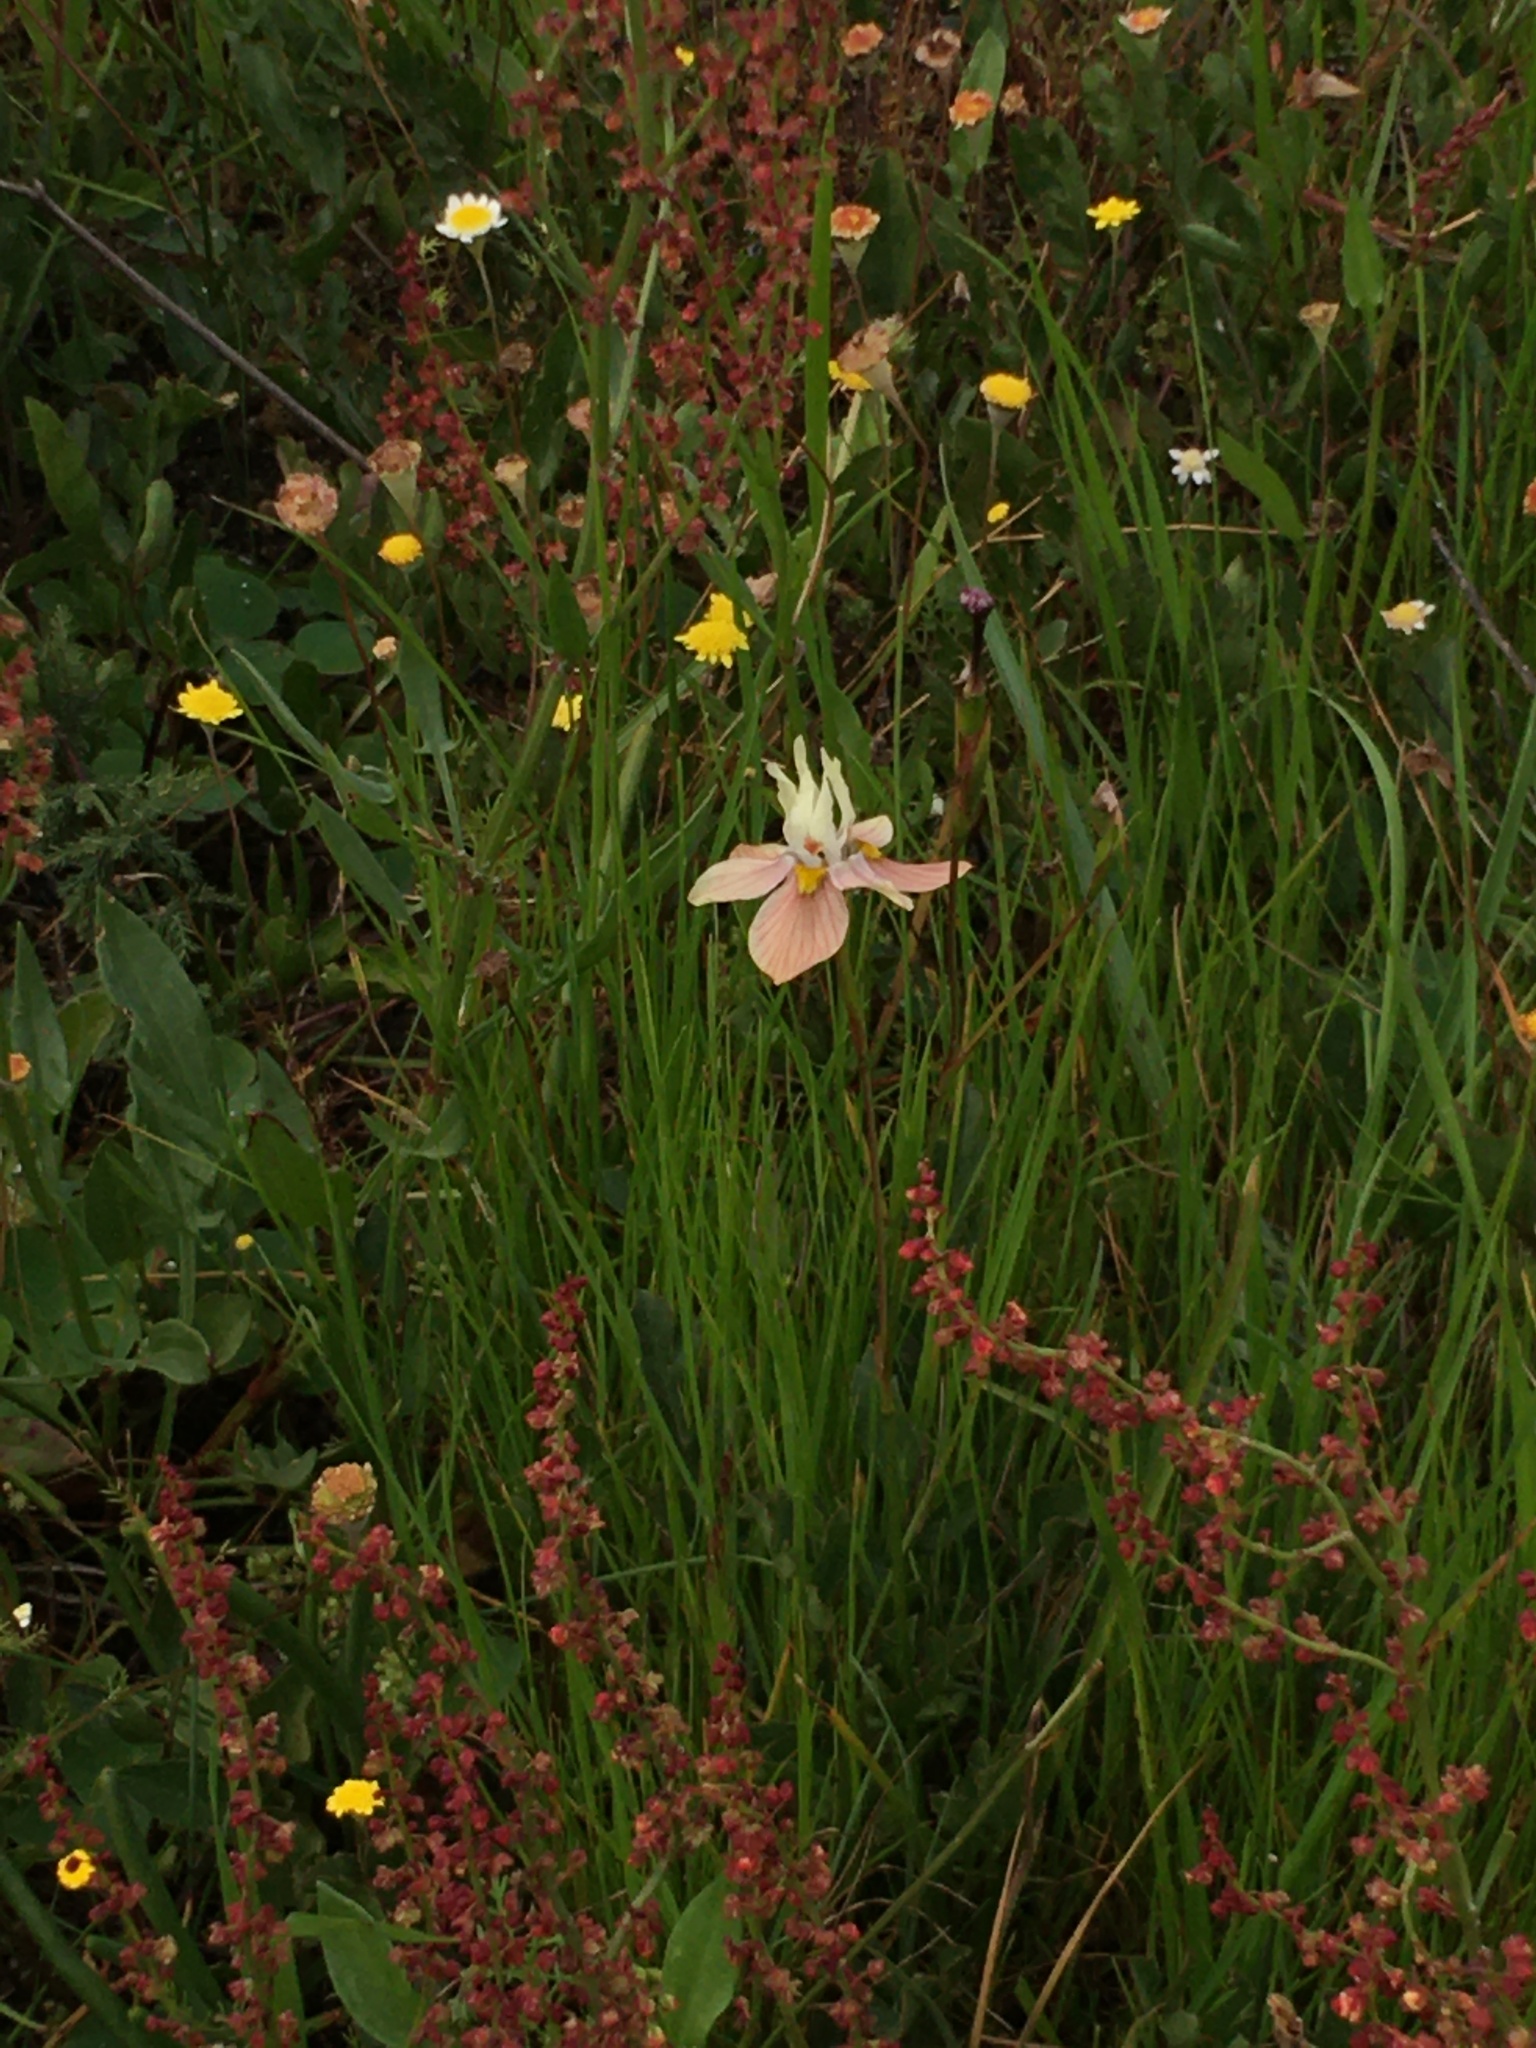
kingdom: Plantae
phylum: Tracheophyta
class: Liliopsida
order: Asparagales
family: Iridaceae
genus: Moraea
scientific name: Moraea gawleri
